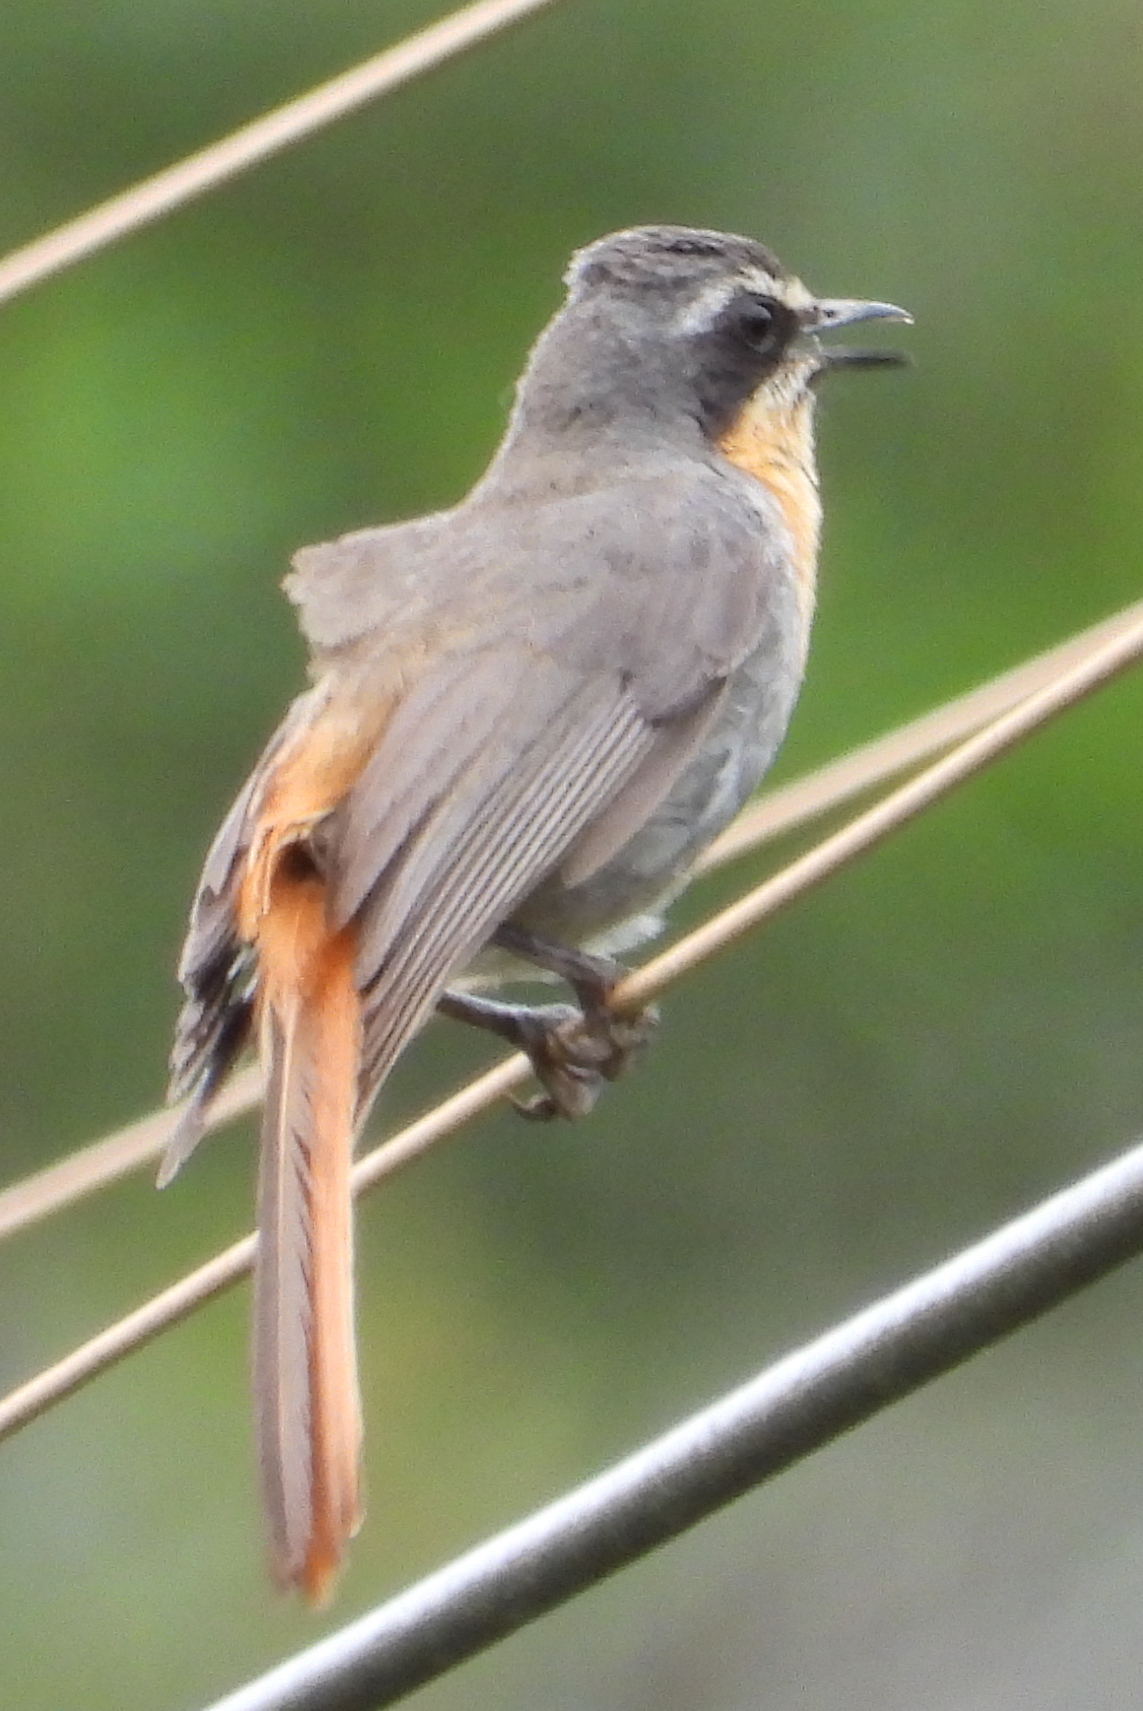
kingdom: Animalia
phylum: Chordata
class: Aves
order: Passeriformes
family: Muscicapidae
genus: Cossypha
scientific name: Cossypha caffra
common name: Cape robin-chat
